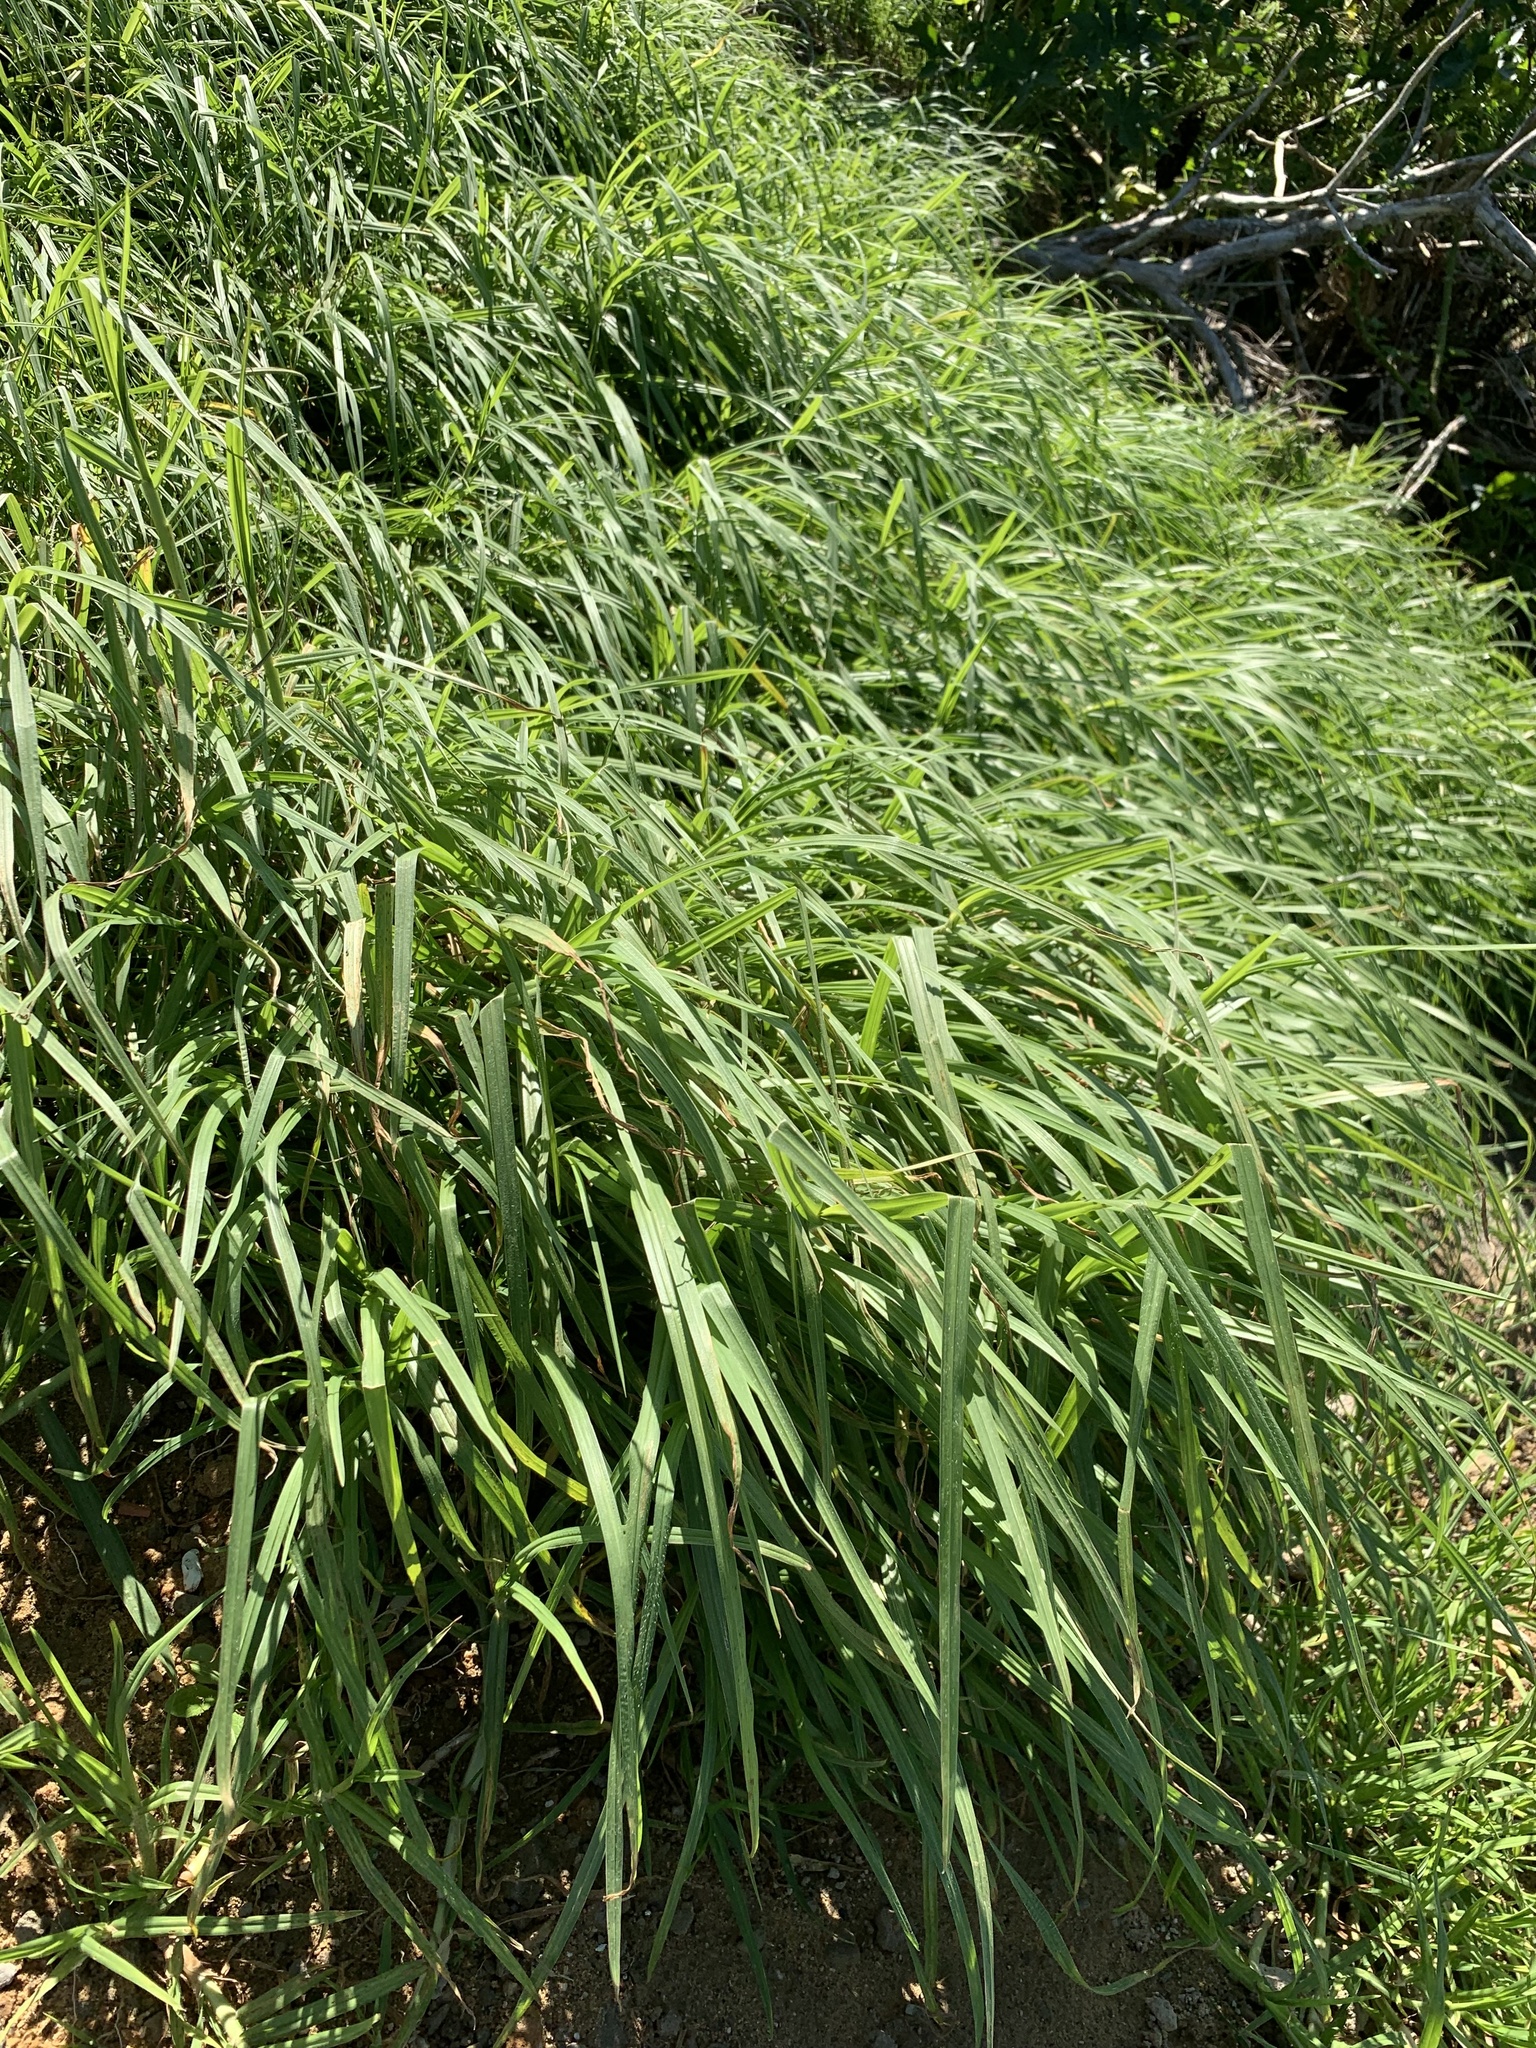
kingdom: Plantae
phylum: Tracheophyta
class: Liliopsida
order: Poales
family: Poaceae
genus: Cenchrus
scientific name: Cenchrus clandestinus
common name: Kikuyugrass
